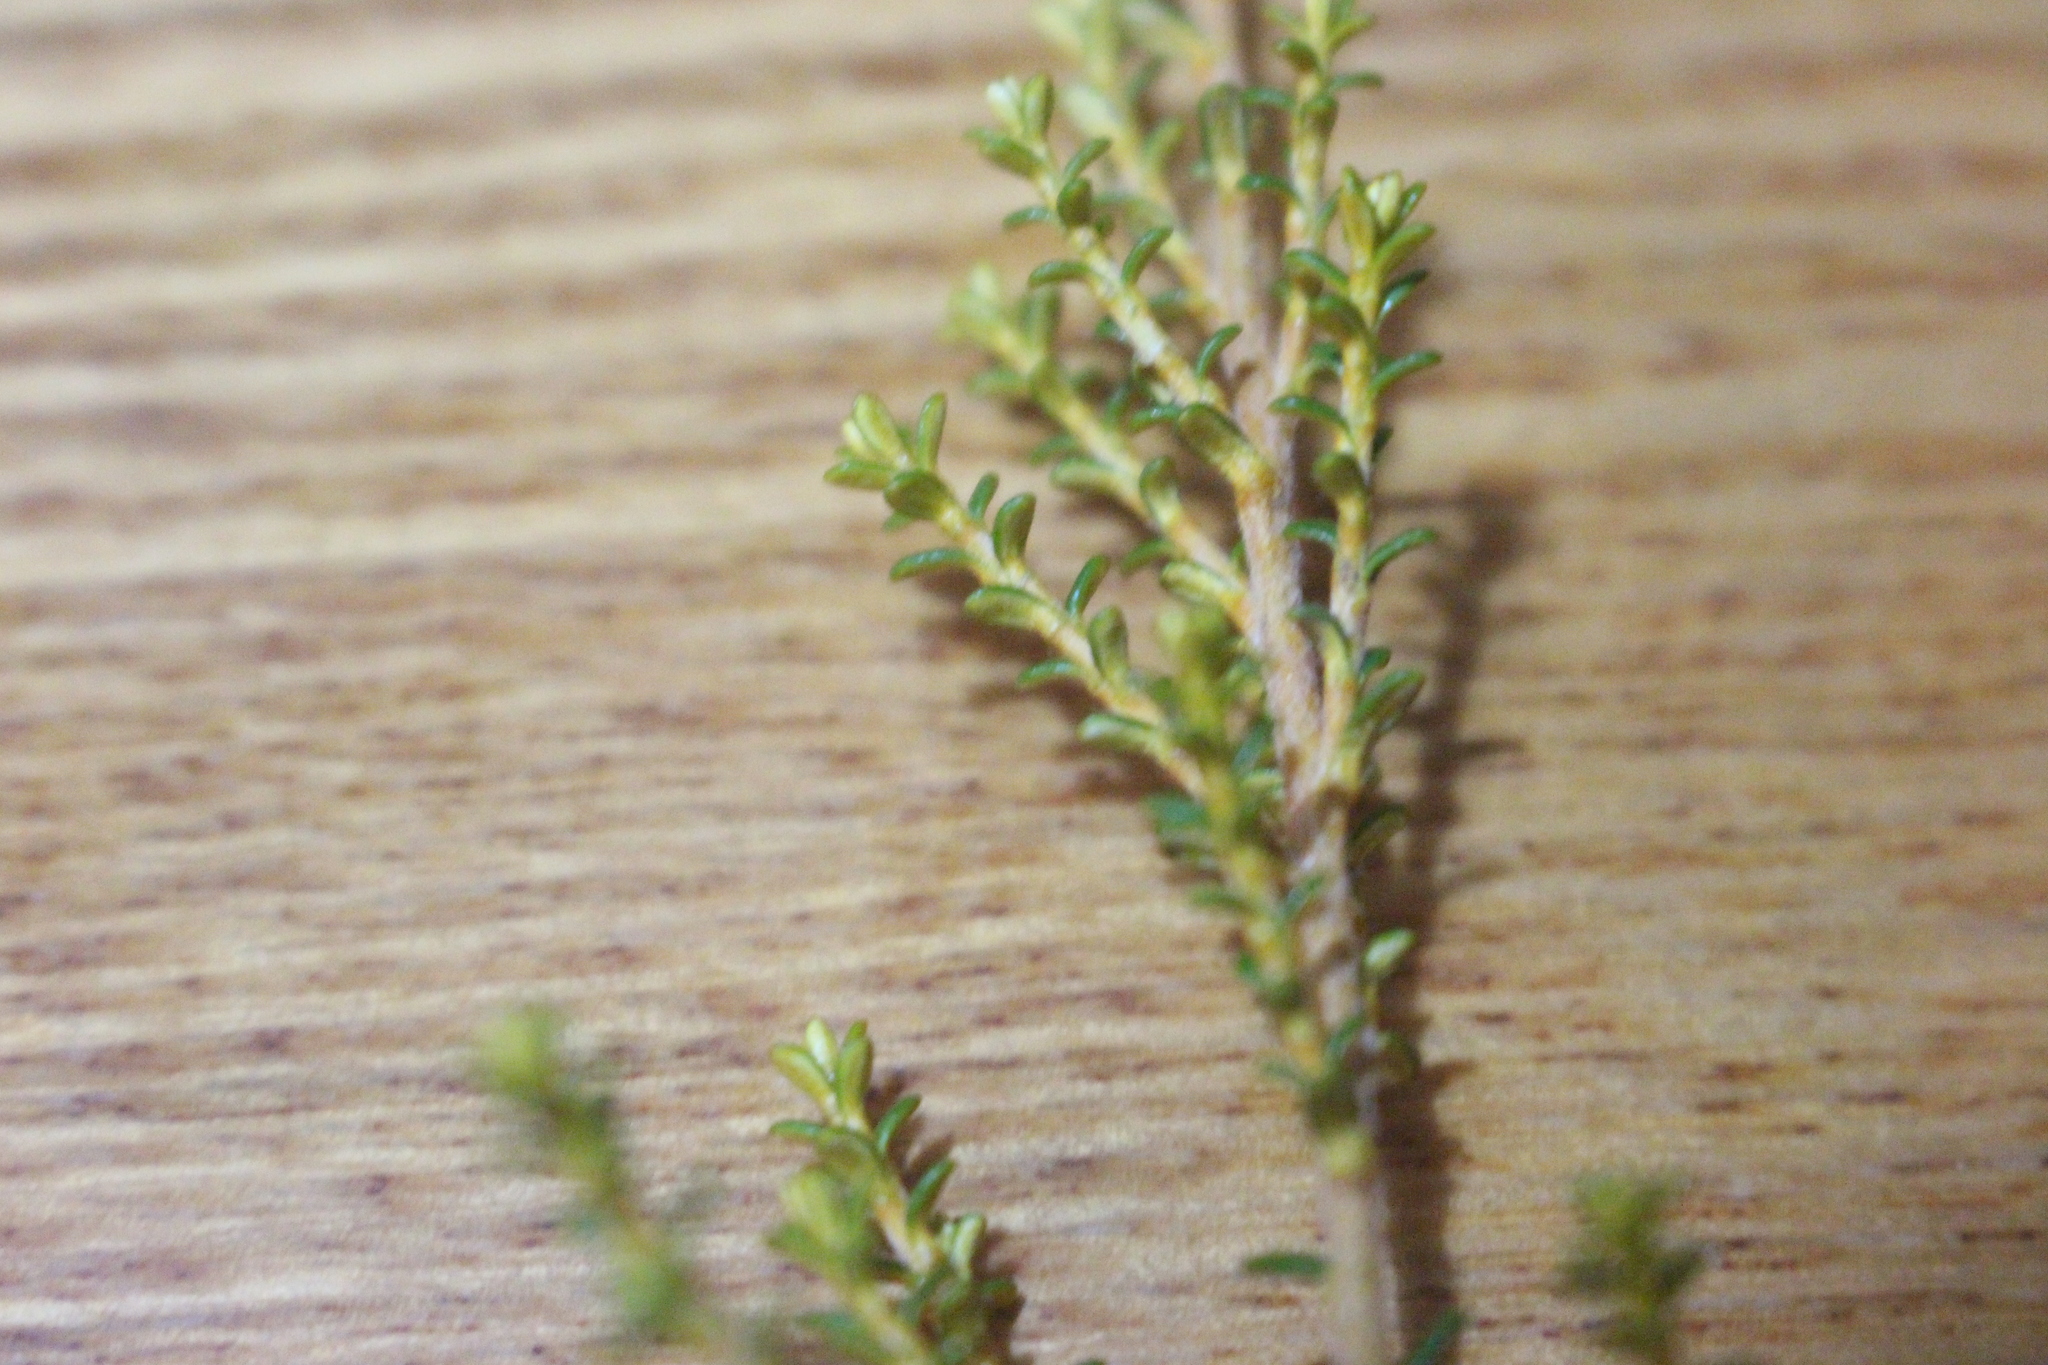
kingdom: Plantae
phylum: Tracheophyta
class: Magnoliopsida
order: Asterales
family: Asteraceae
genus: Ozothamnus
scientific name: Ozothamnus leptophyllus
